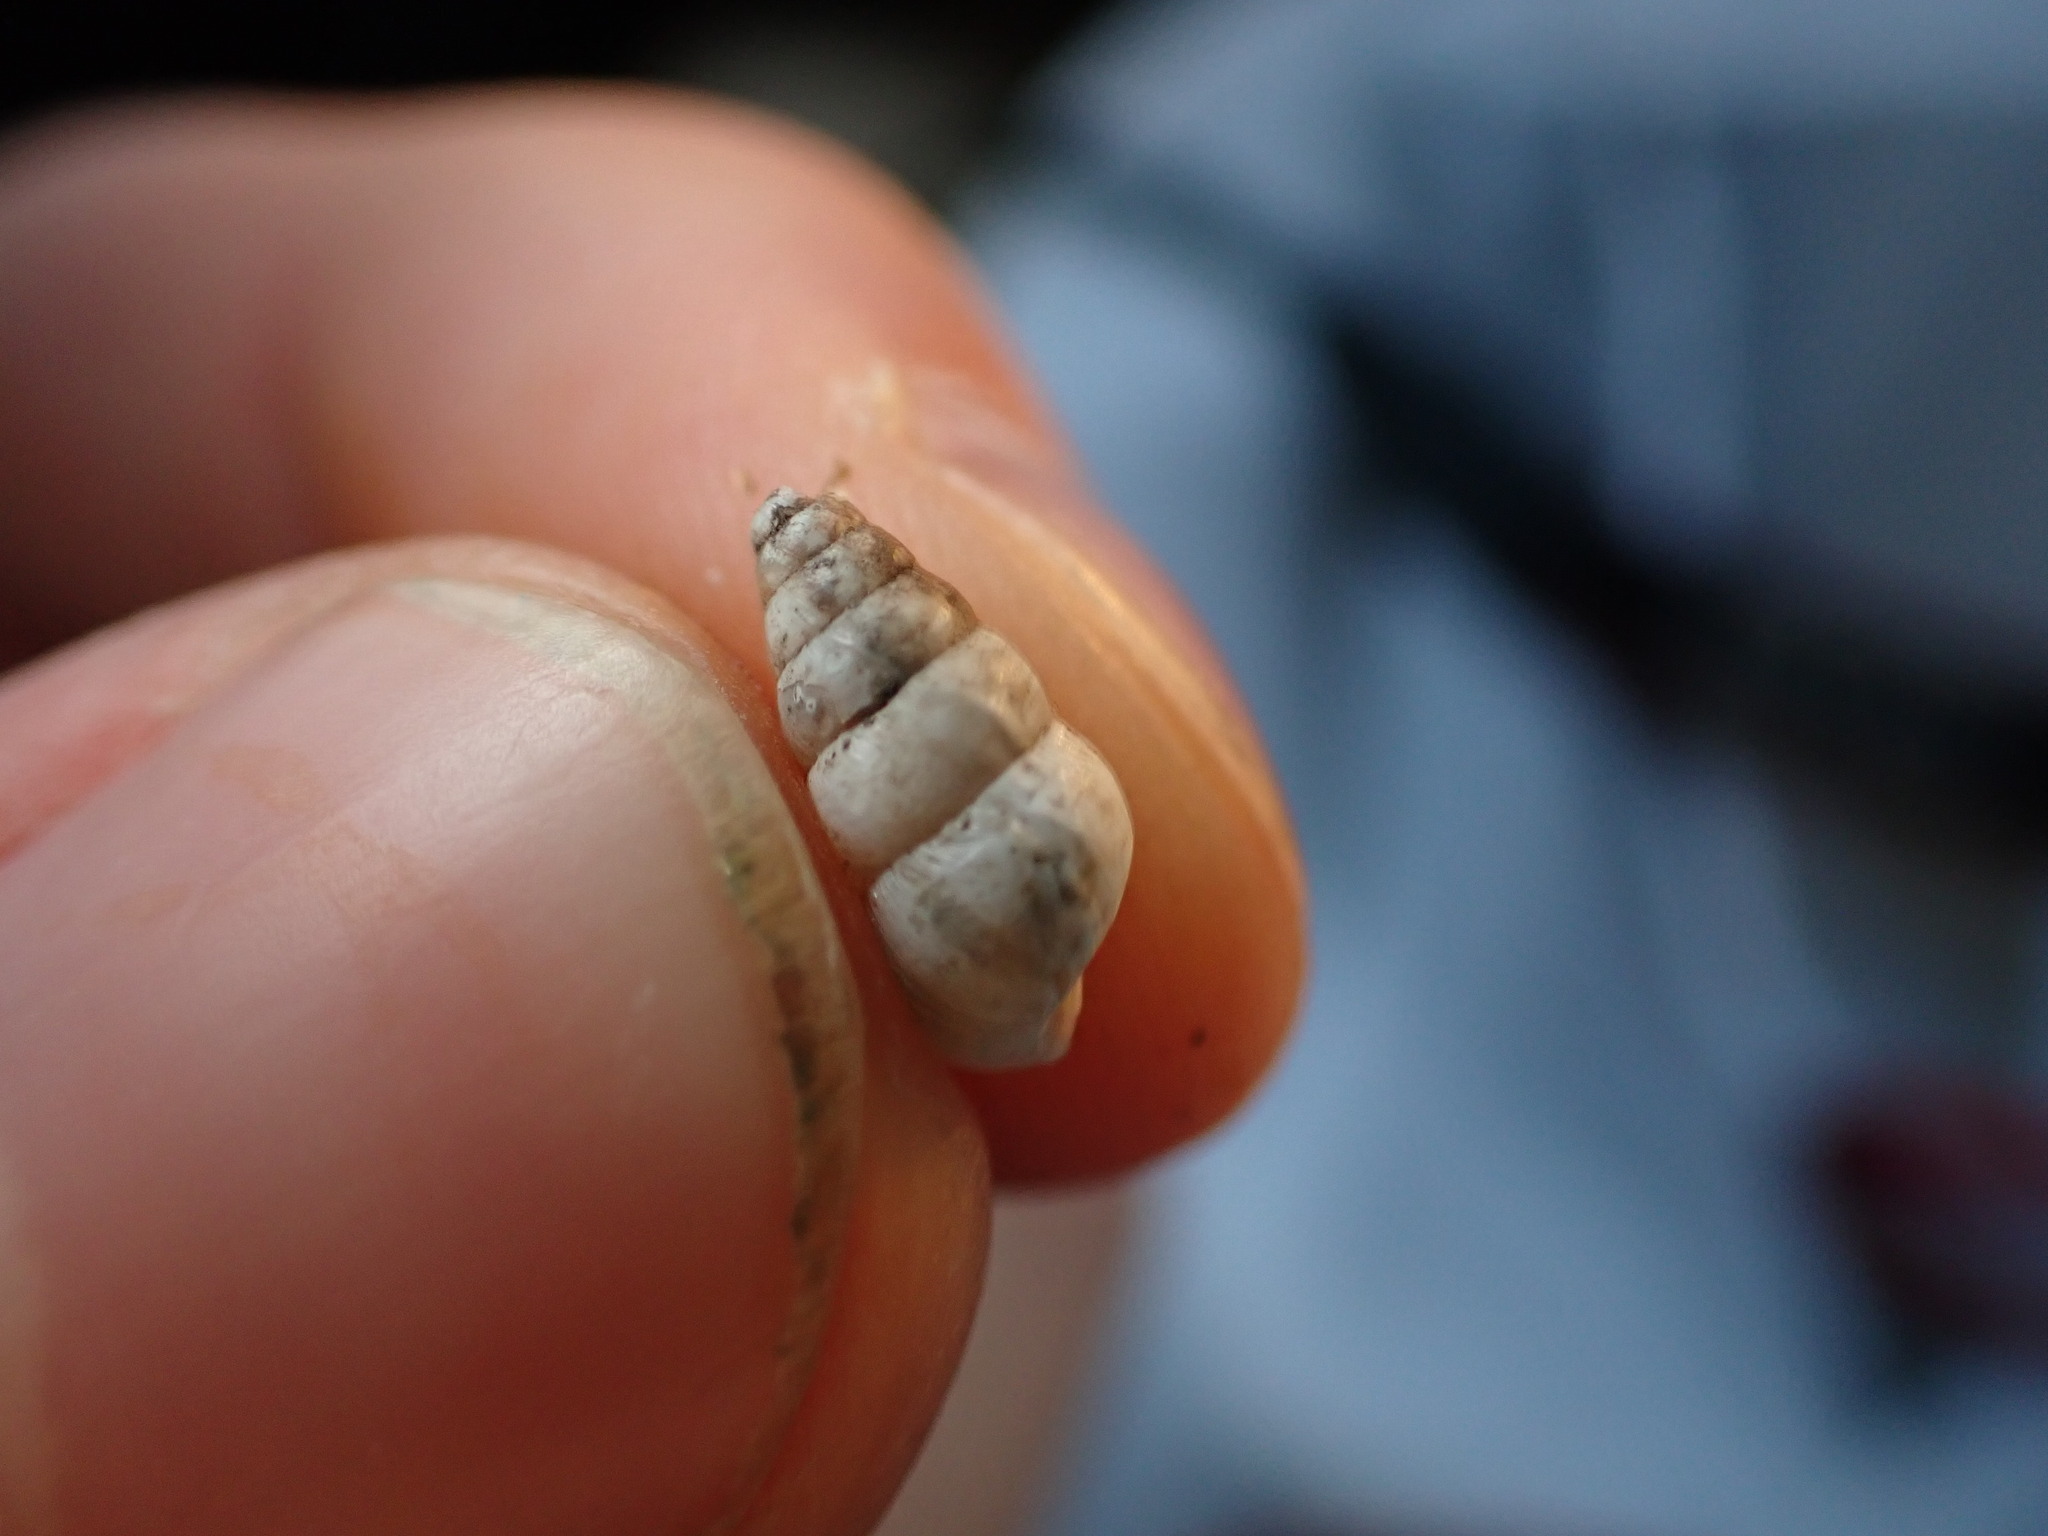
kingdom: Animalia
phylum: Mollusca
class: Gastropoda
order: Stylommatophora
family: Geomitridae
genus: Cochlicella
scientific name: Cochlicella acuta
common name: Pointed snail
